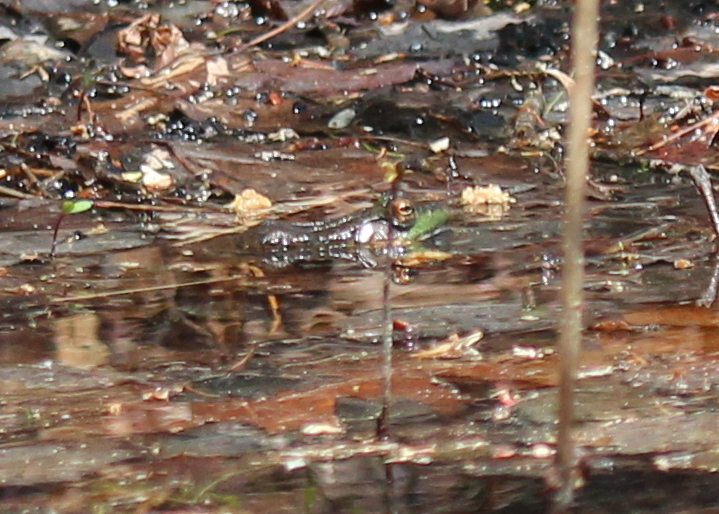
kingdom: Animalia
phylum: Chordata
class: Amphibia
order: Anura
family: Ranidae
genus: Lithobates
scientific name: Lithobates catesbeianus
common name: American bullfrog
